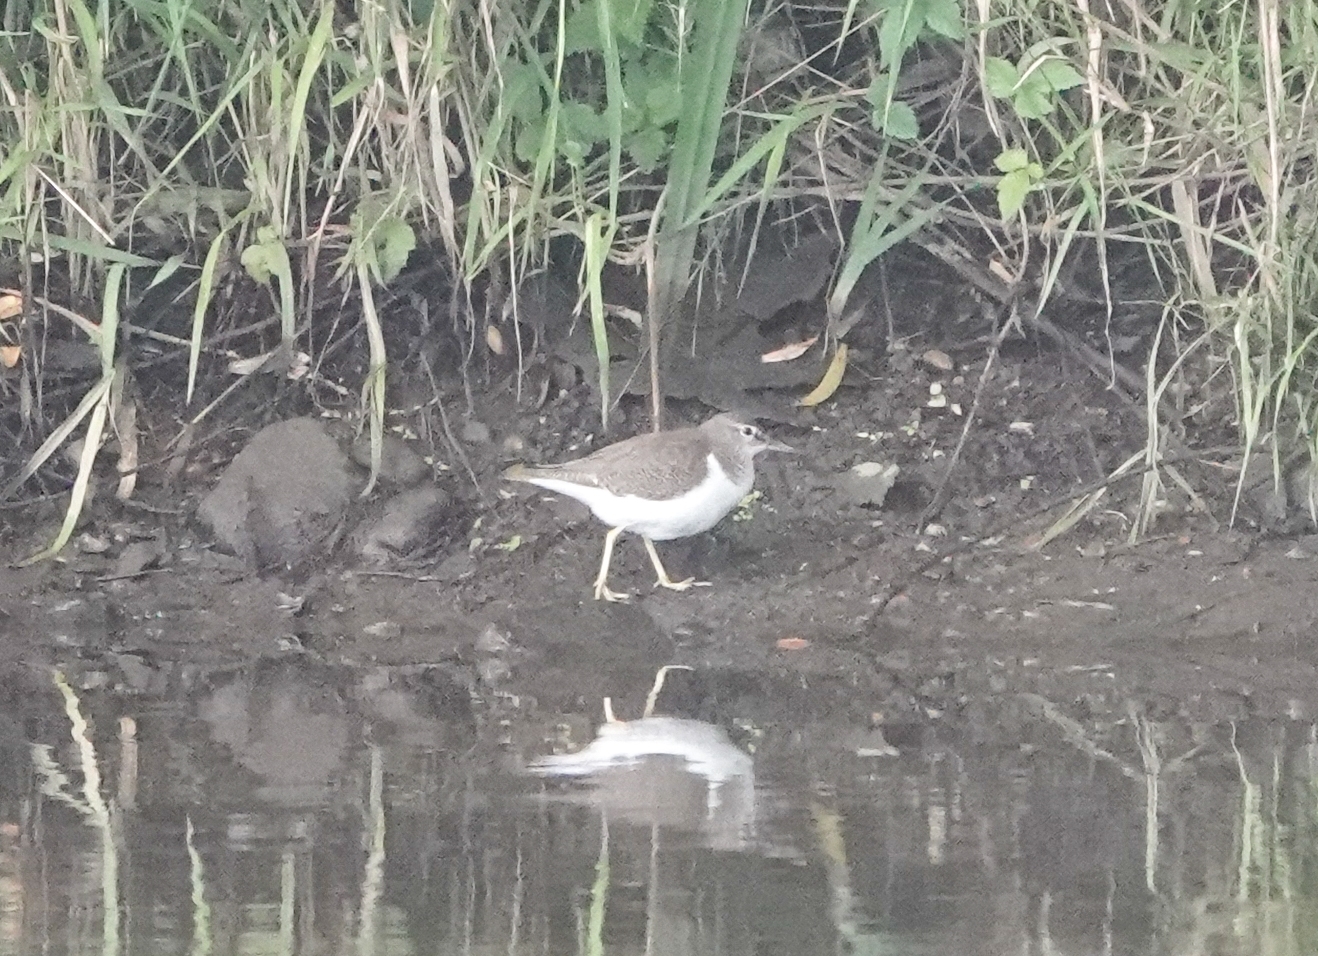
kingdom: Animalia
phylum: Chordata
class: Aves
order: Charadriiformes
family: Scolopacidae
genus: Actitis
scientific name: Actitis hypoleucos
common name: Common sandpiper
